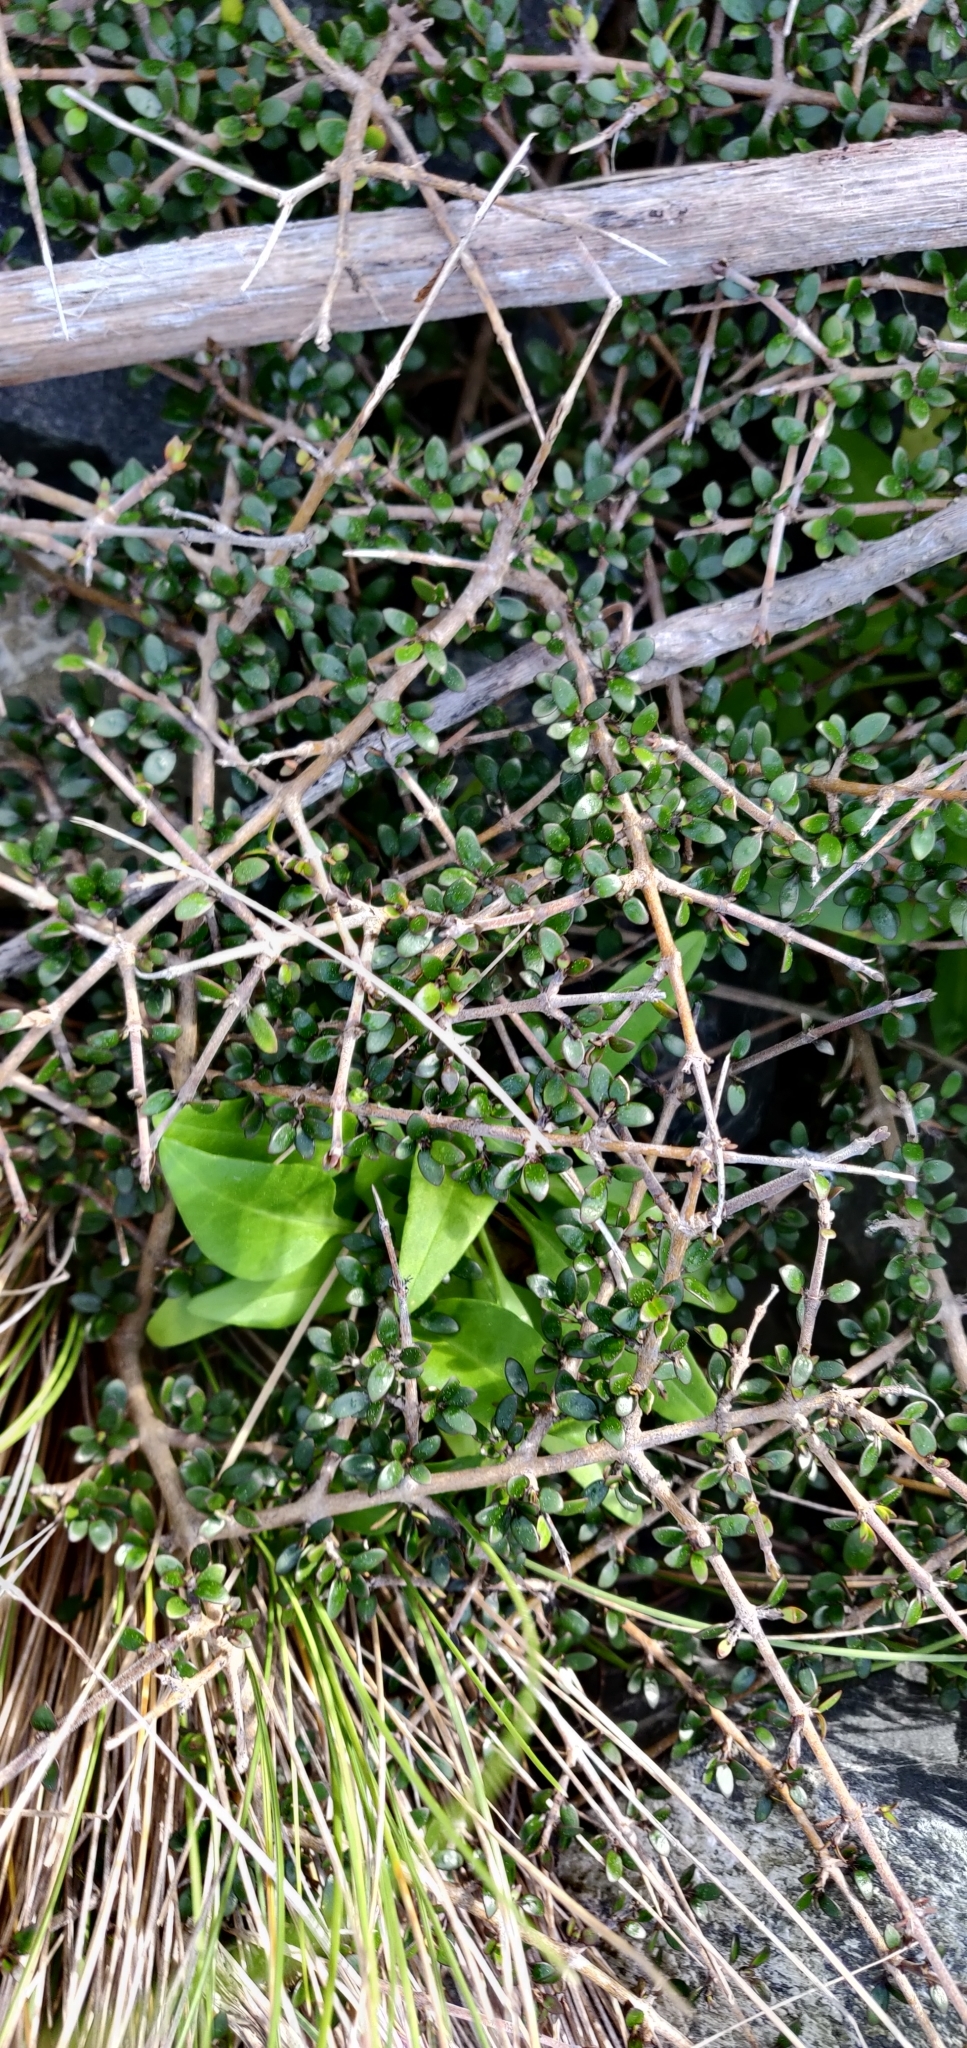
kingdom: Plantae
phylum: Tracheophyta
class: Magnoliopsida
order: Gentianales
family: Rubiaceae
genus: Coprosma
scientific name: Coprosma propinqua
